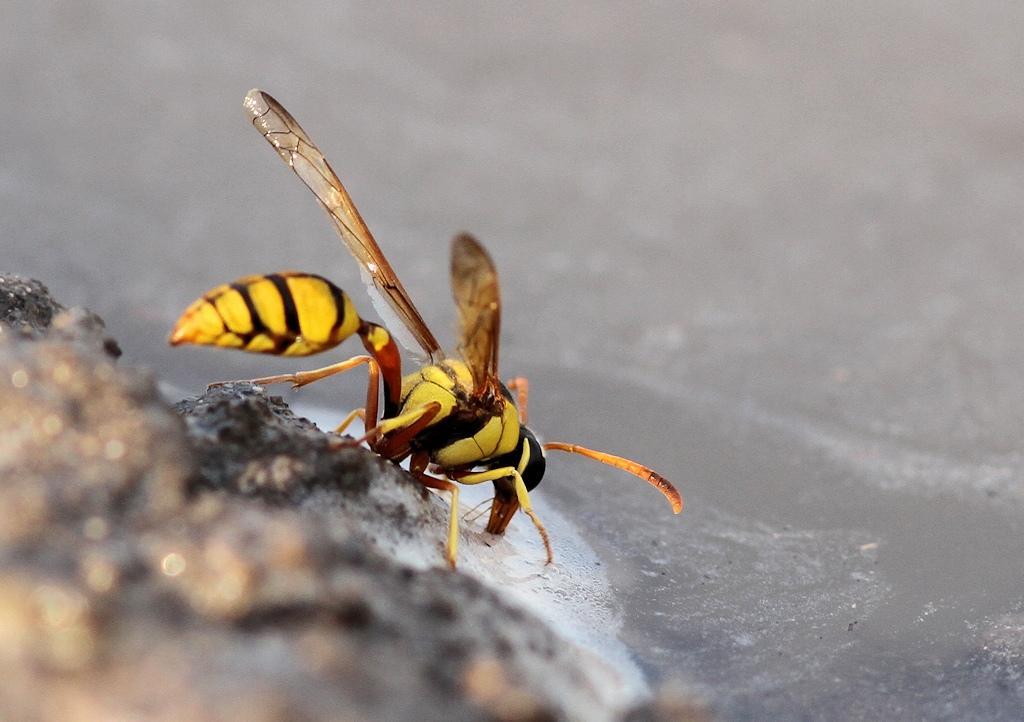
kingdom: Animalia
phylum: Arthropoda
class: Insecta
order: Hymenoptera
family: Eumenidae
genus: Delta
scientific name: Delta lepeleterii
